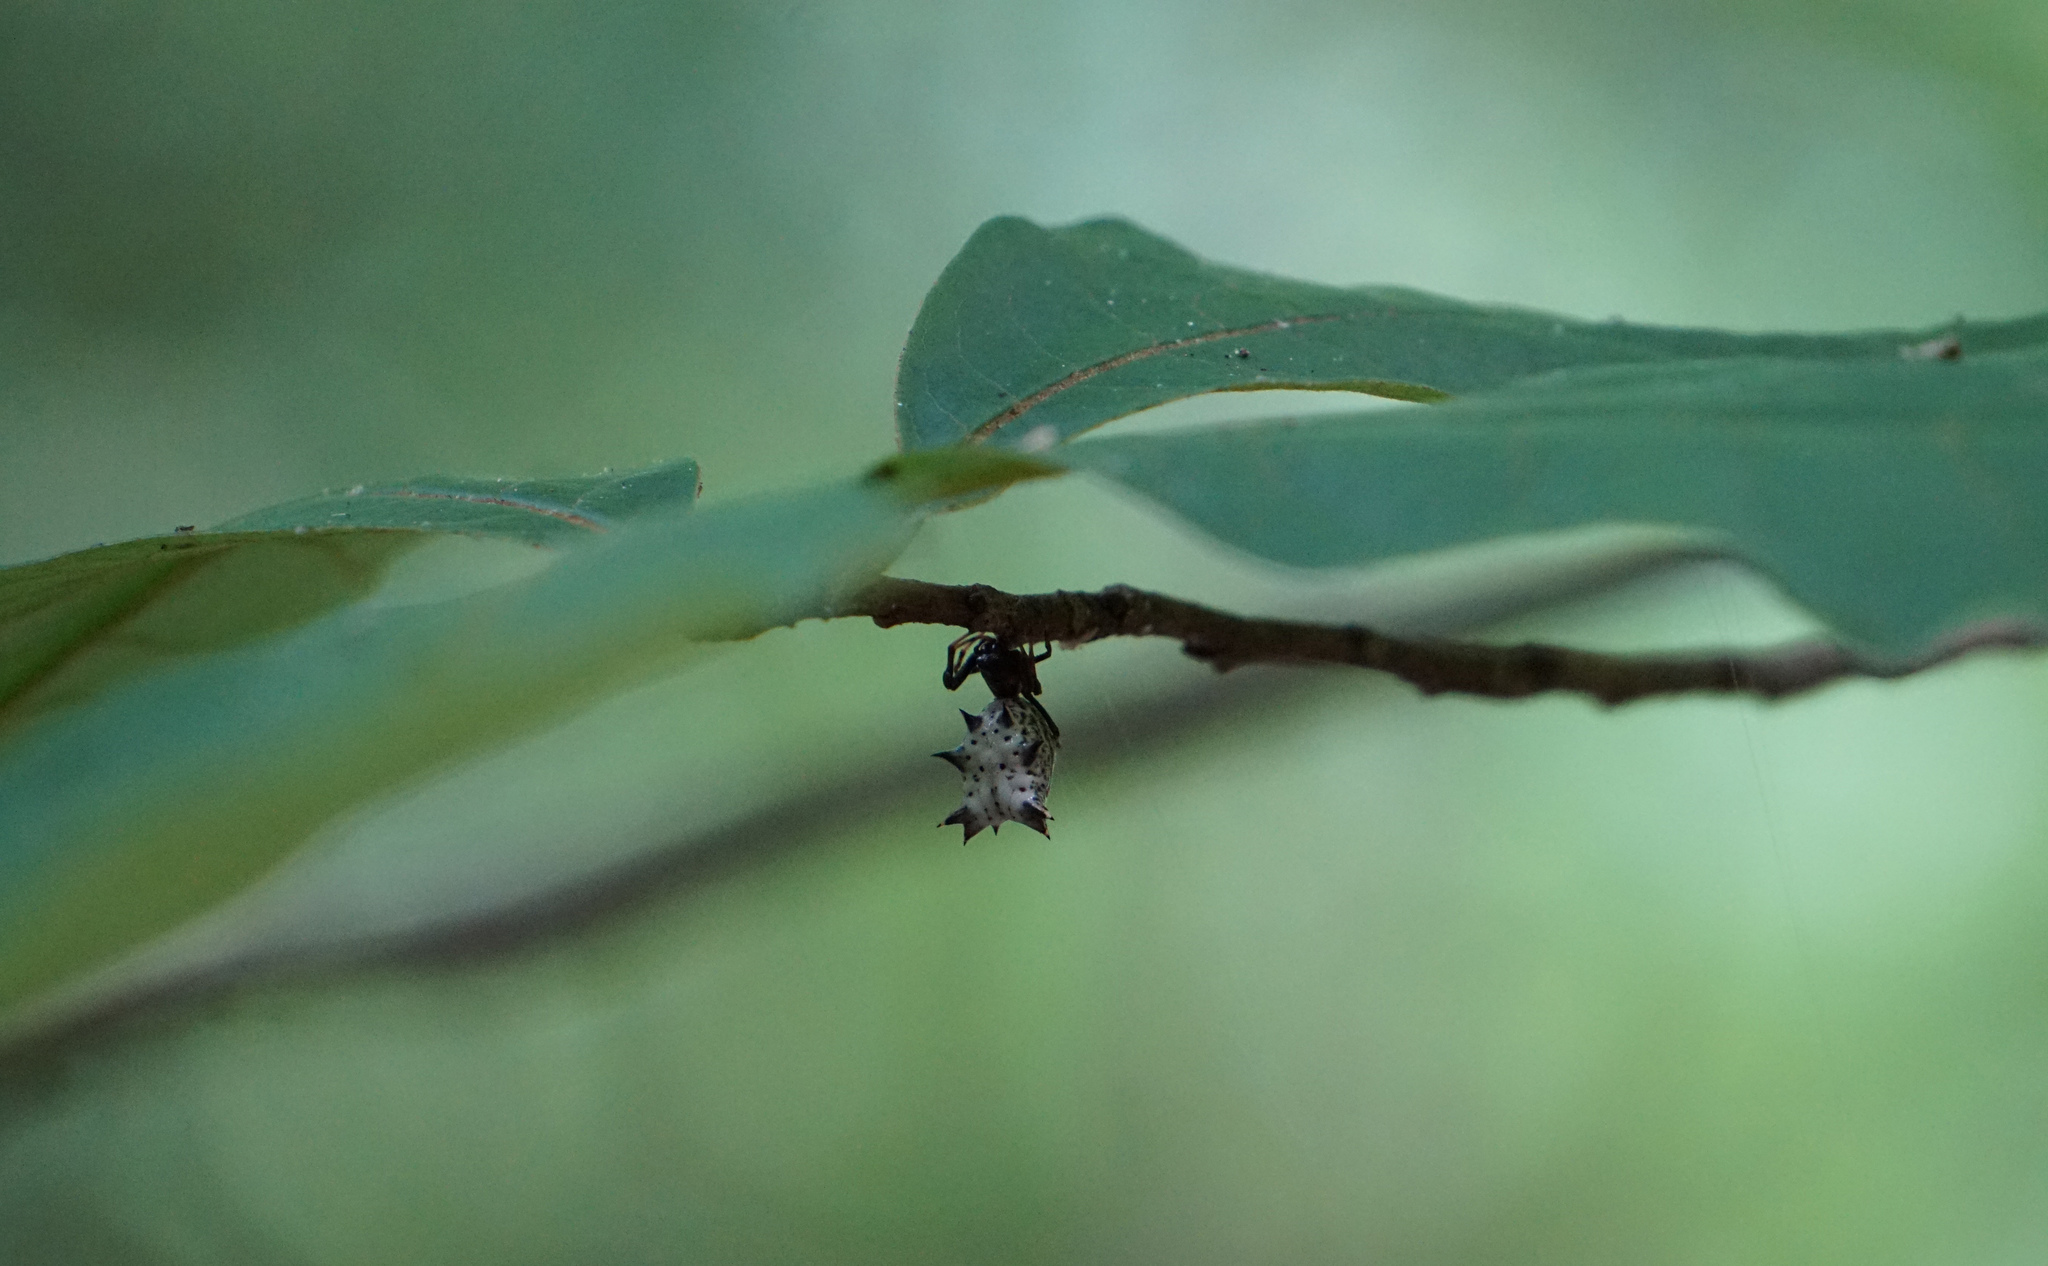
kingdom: Animalia
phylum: Arthropoda
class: Arachnida
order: Araneae
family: Araneidae
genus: Micrathena
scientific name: Micrathena gracilis
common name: Orb weavers
